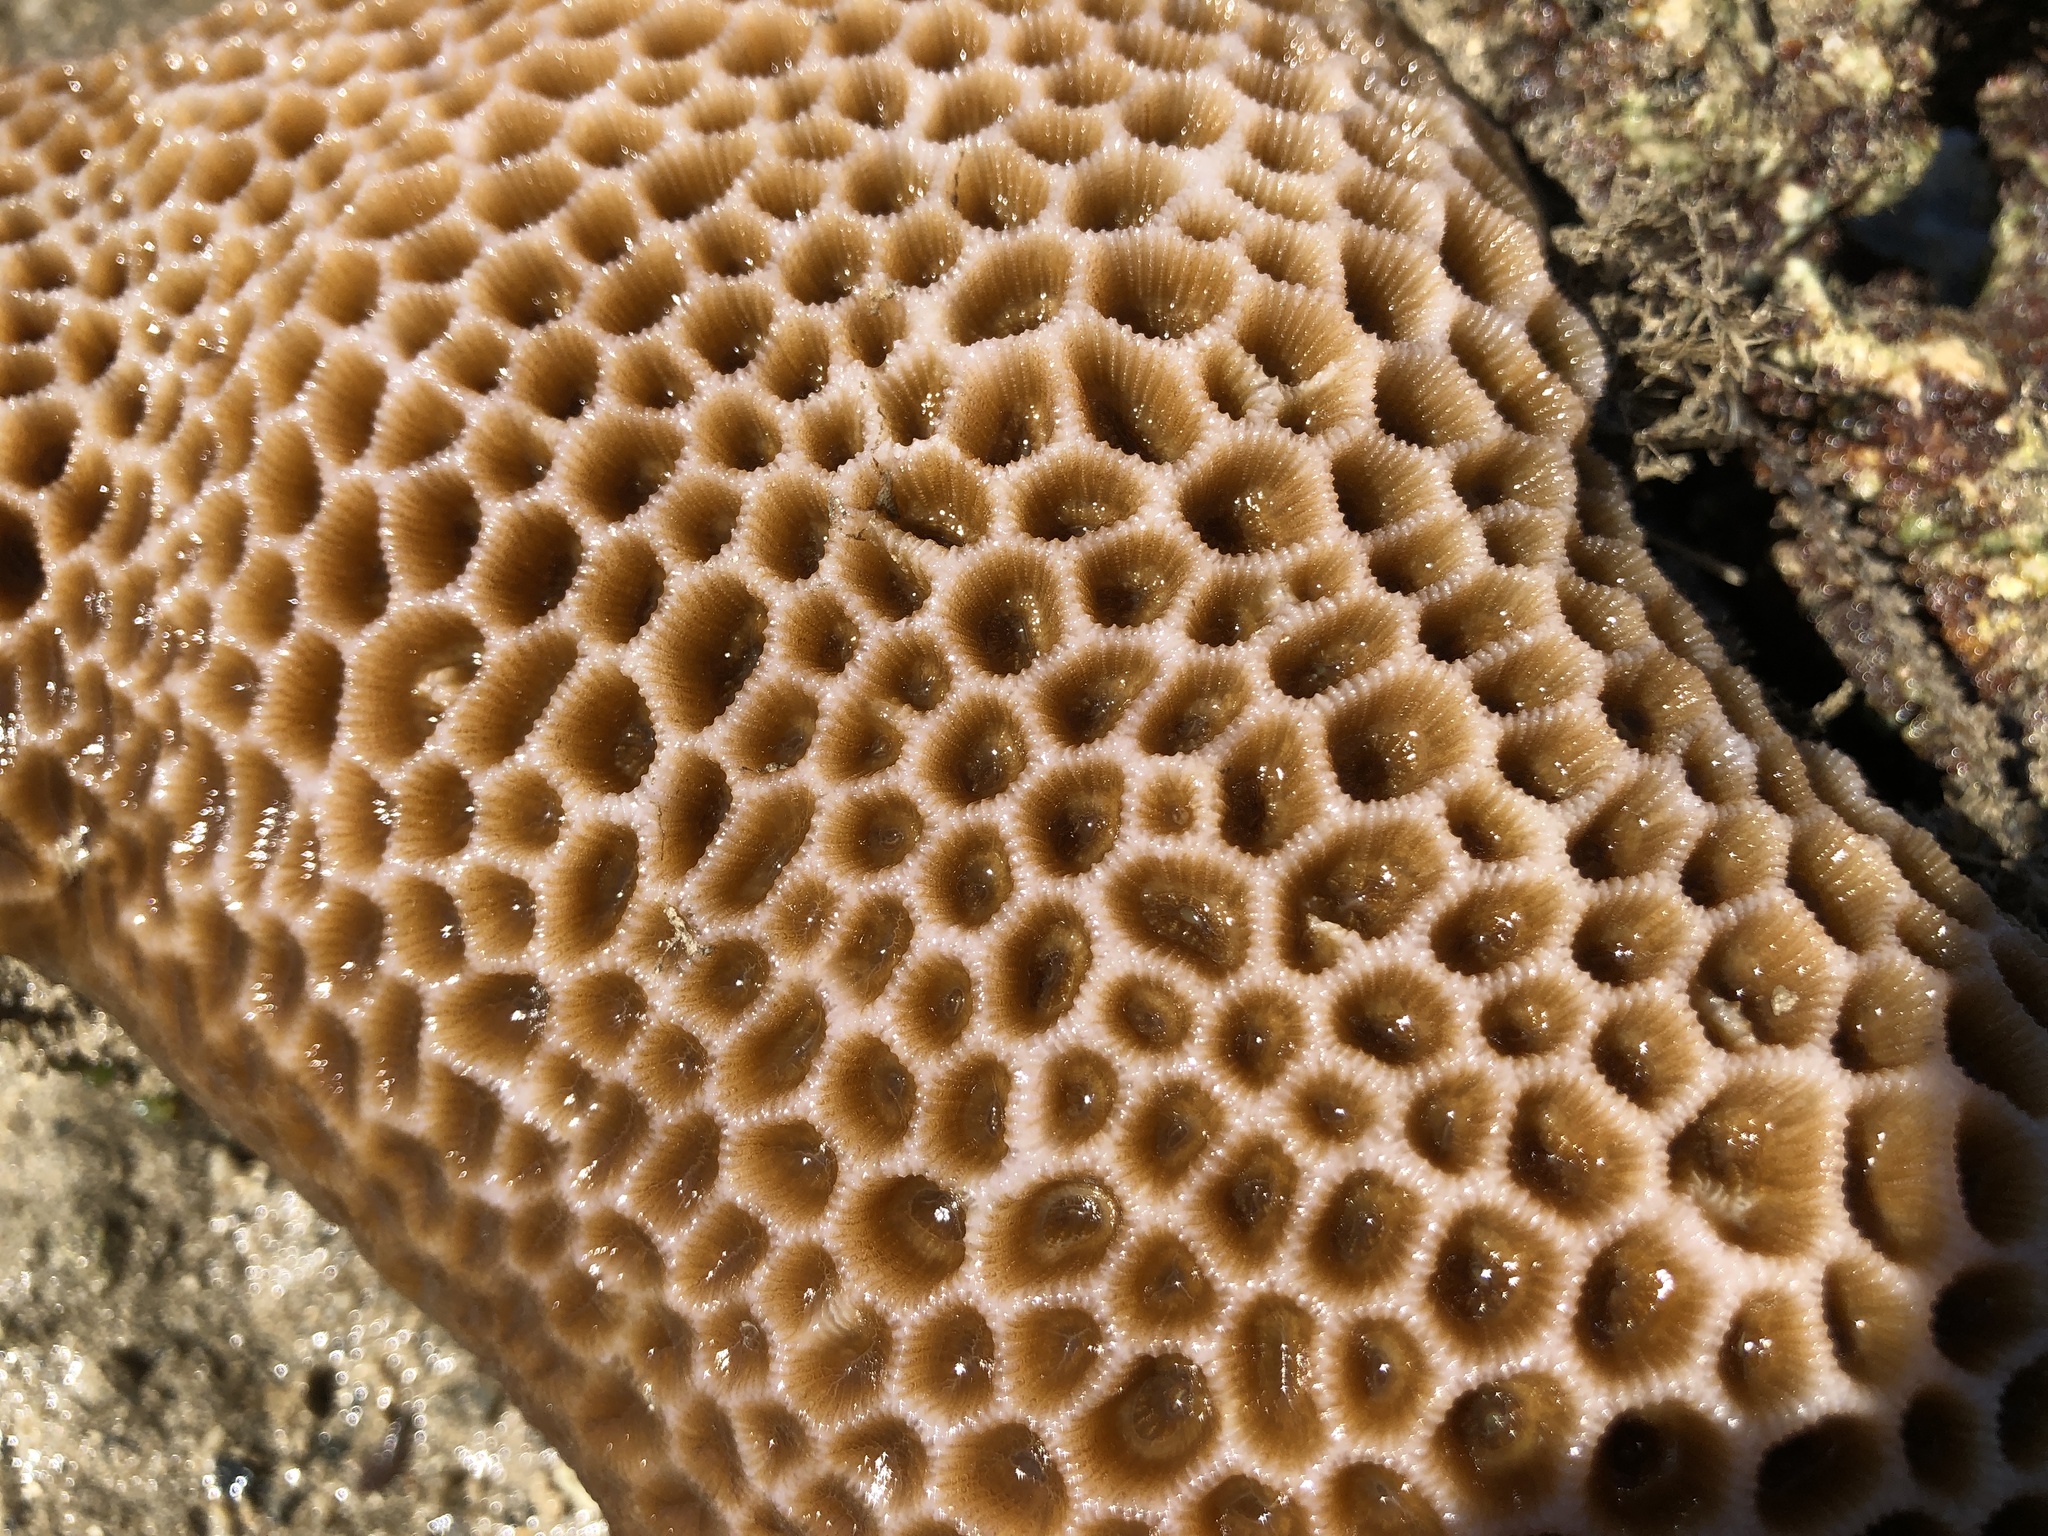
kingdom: Animalia
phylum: Cnidaria
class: Anthozoa
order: Scleractinia
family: Merulinidae
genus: Coelastrea
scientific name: Coelastrea aspera
